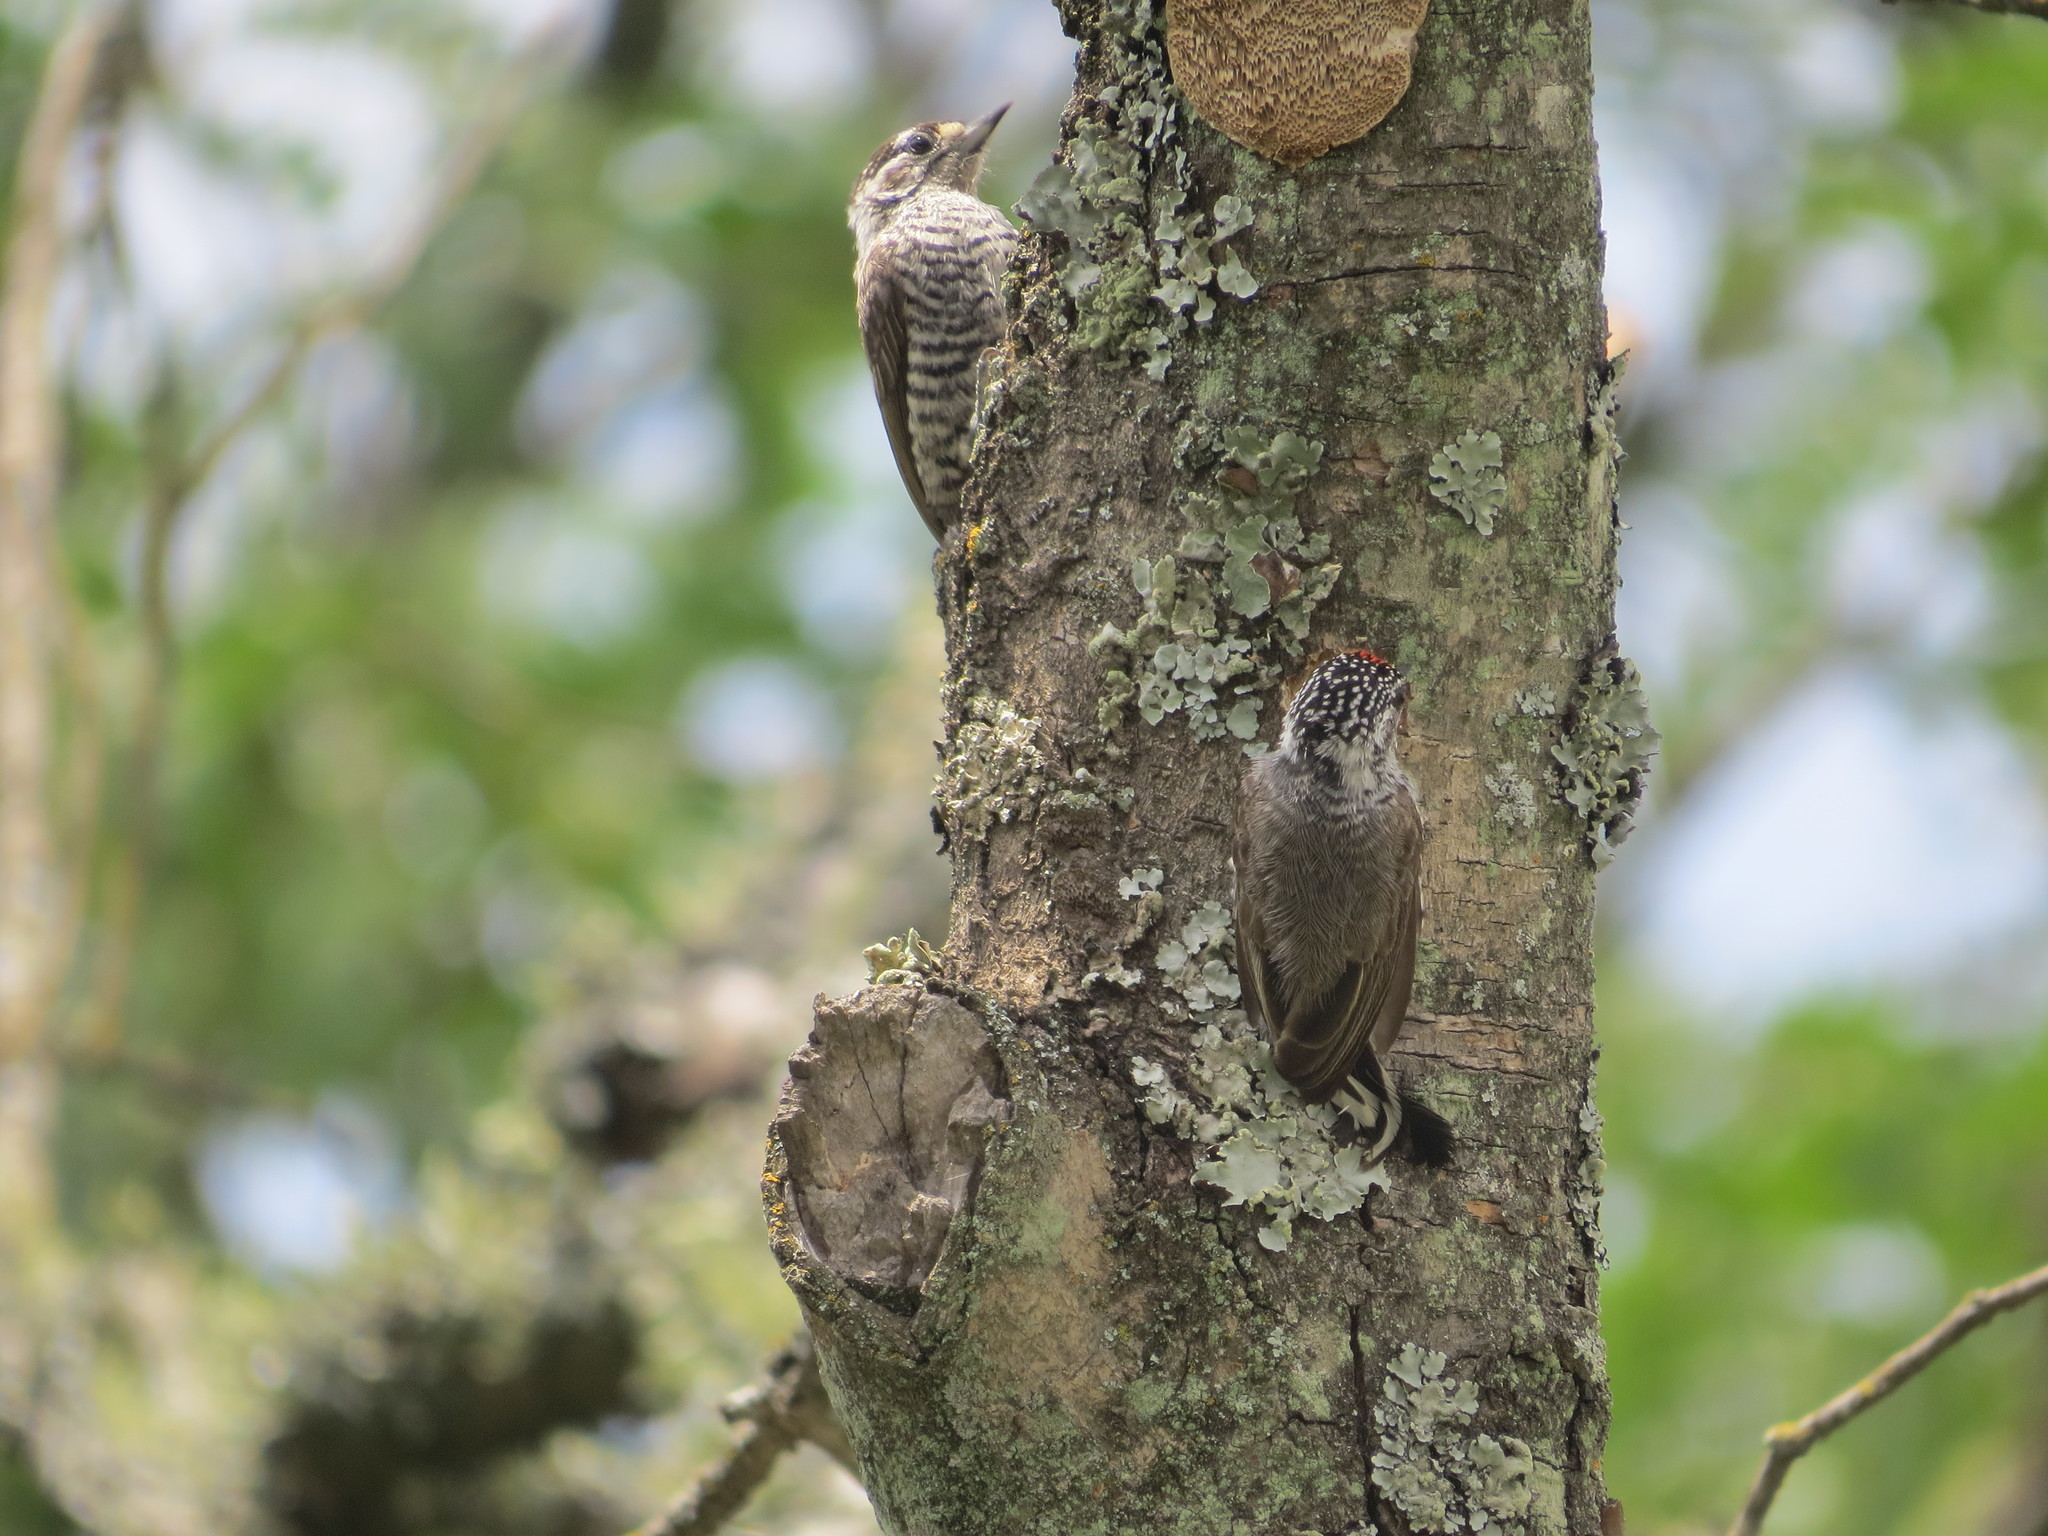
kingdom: Animalia
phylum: Chordata
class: Aves
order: Piciformes
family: Picidae
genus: Picumnus
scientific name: Picumnus cirratus
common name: White-barred piculet
